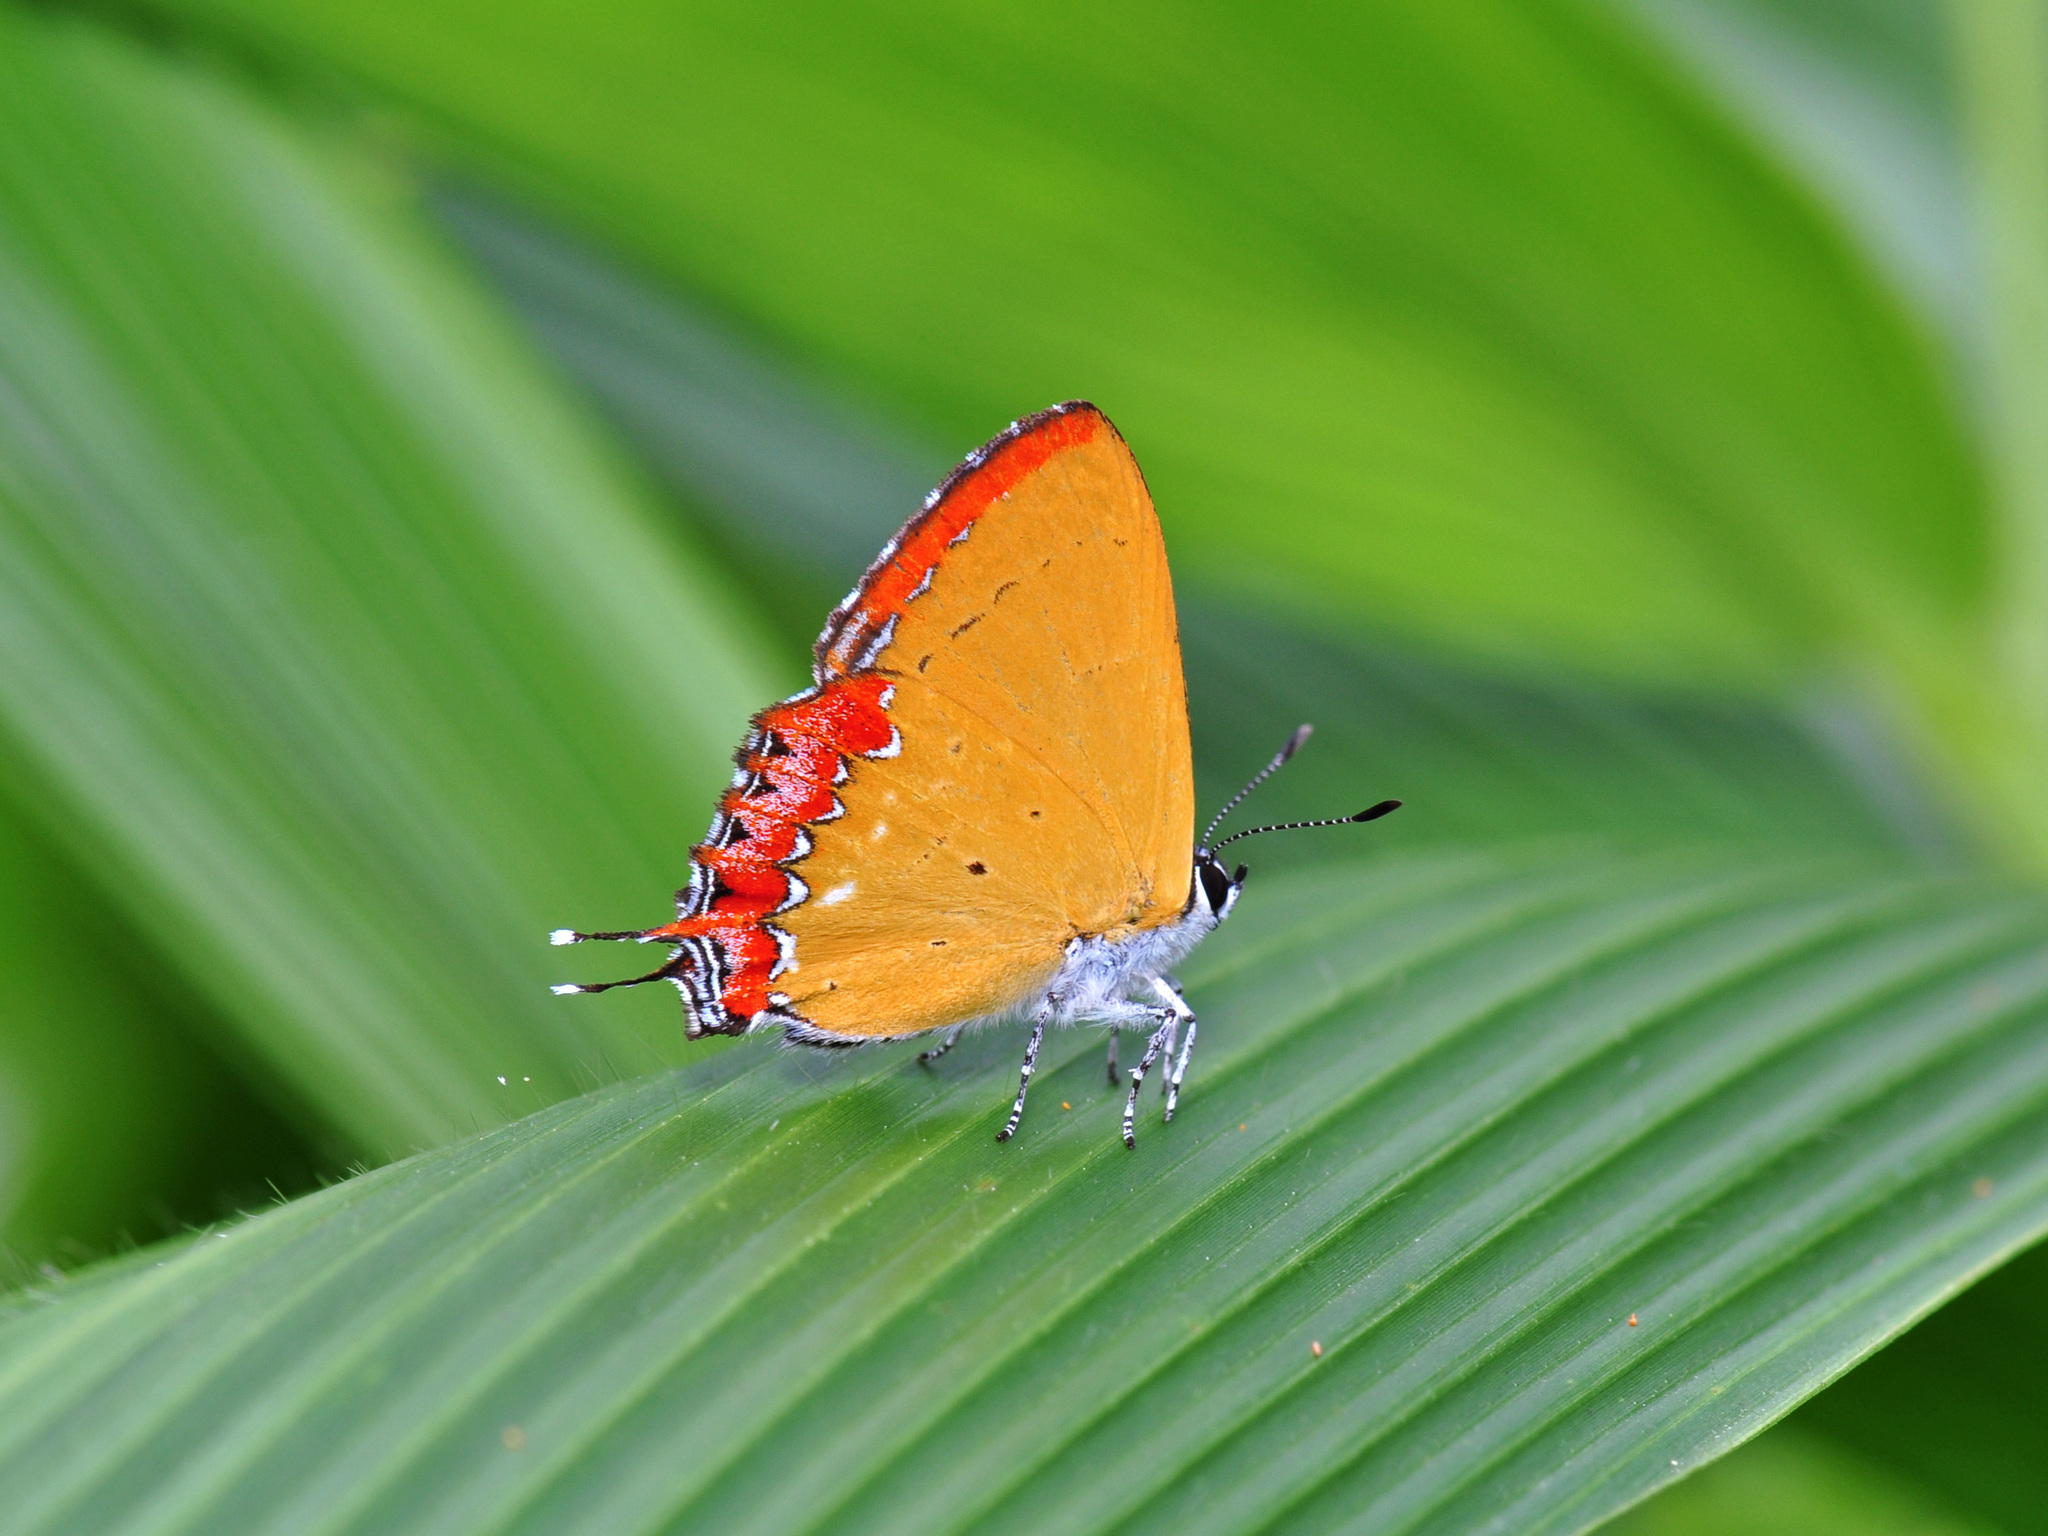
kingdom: Animalia
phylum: Arthropoda
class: Insecta
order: Lepidoptera
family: Lycaenidae
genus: Heliophorus
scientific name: Heliophorus epicles
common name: Purple sapphire
